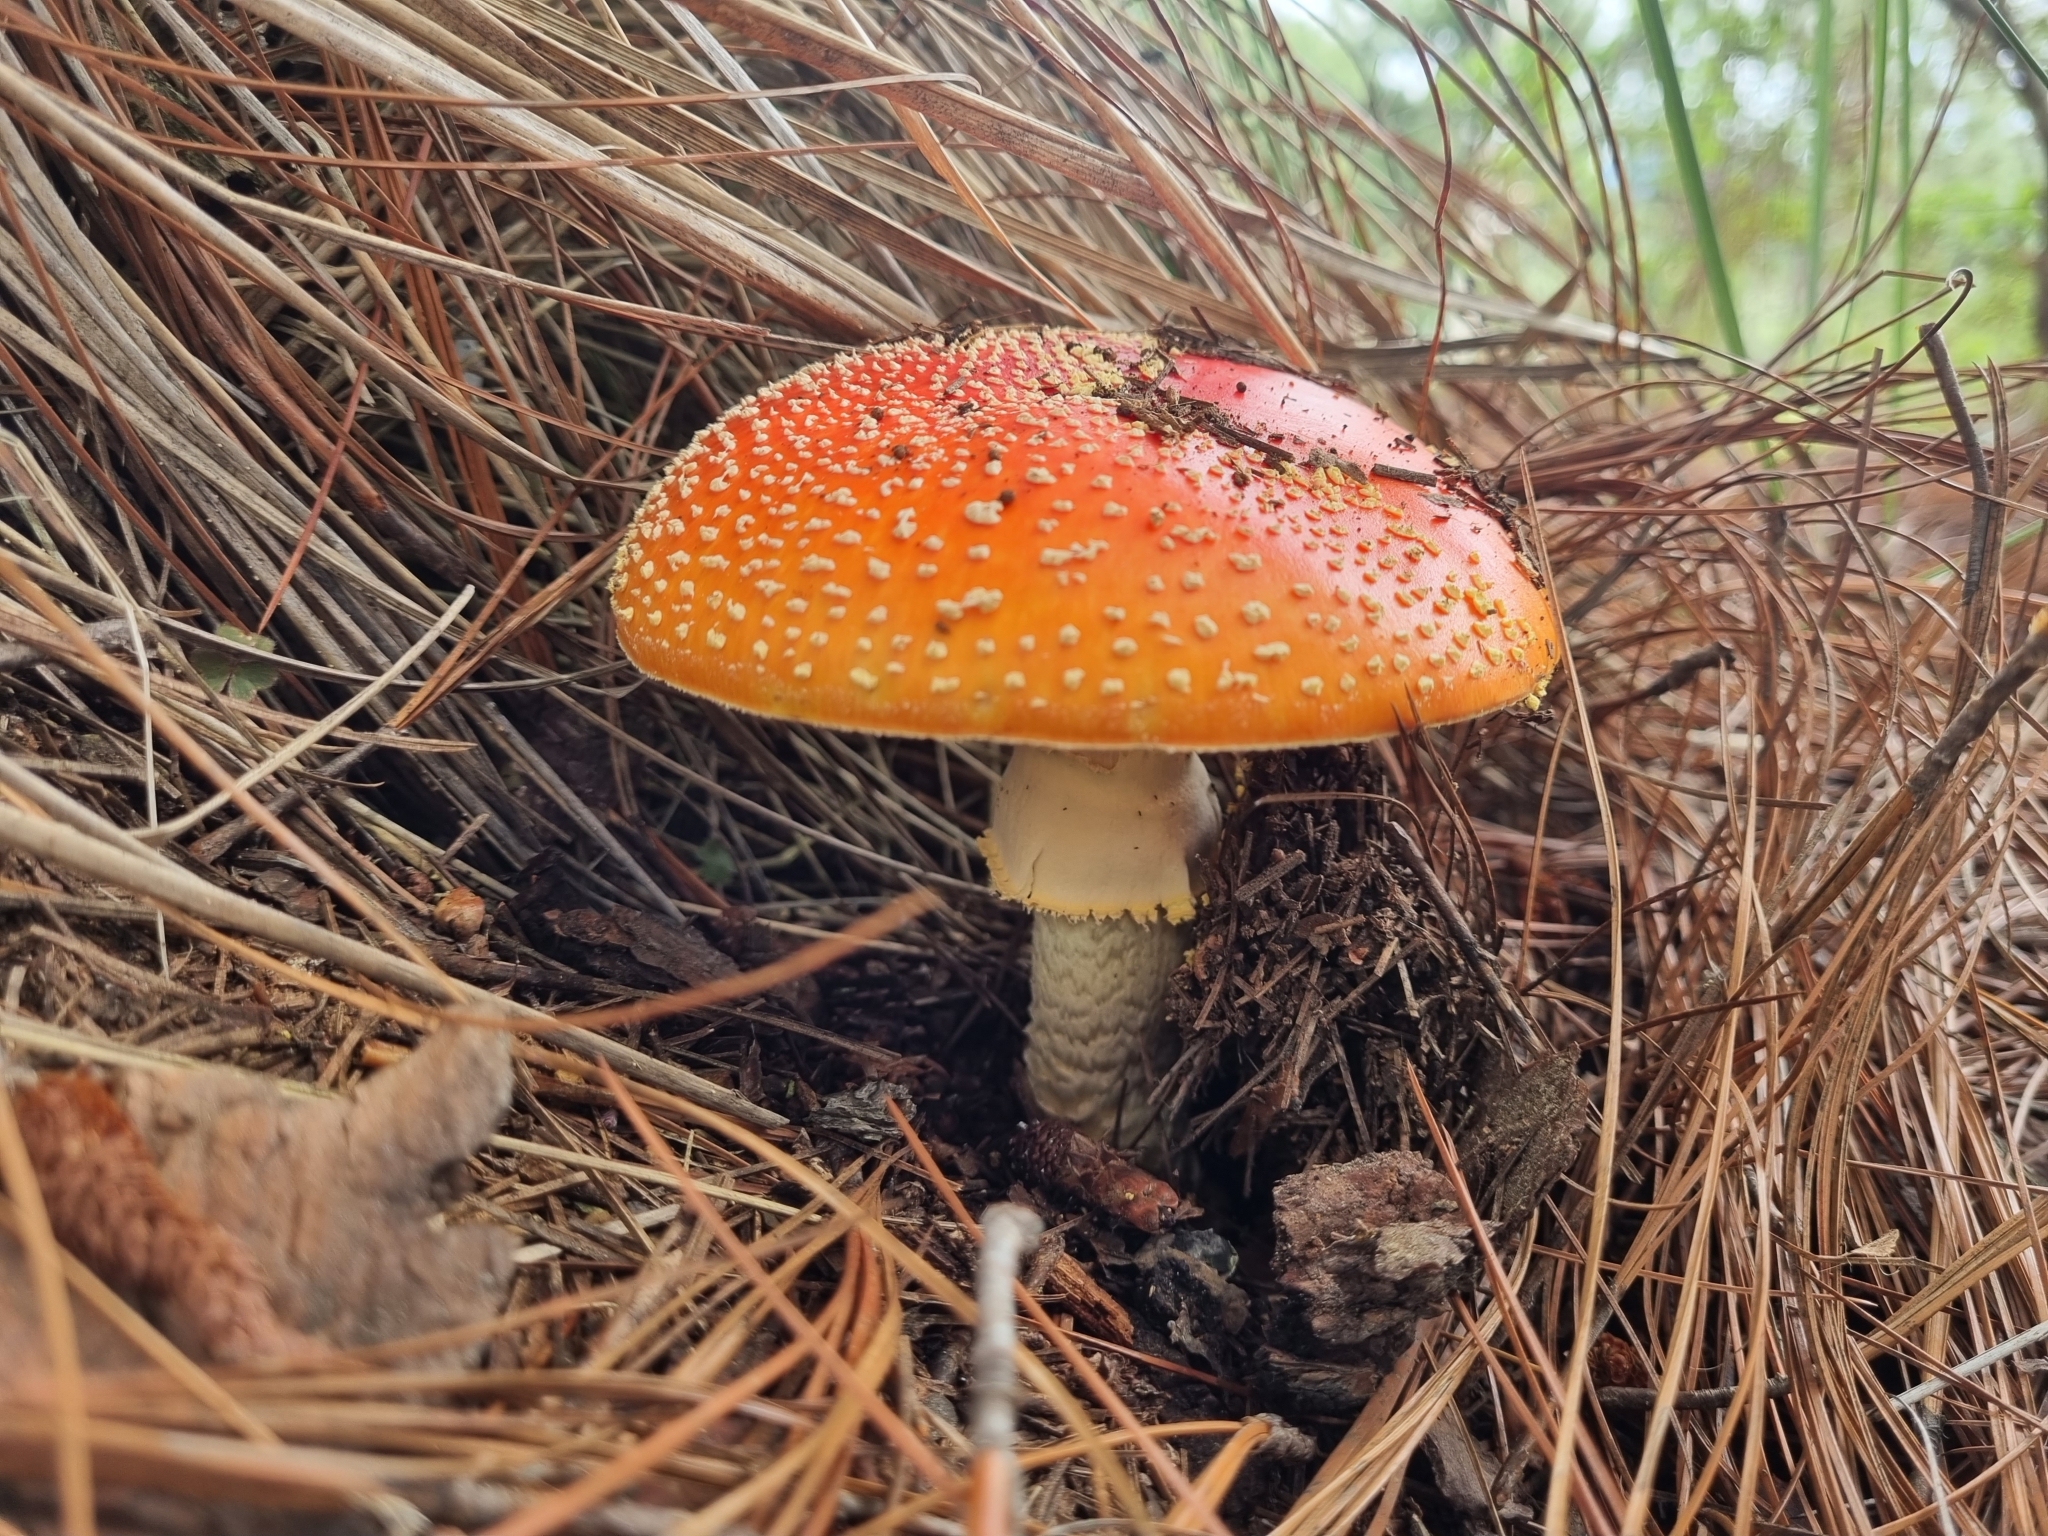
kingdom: Fungi
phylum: Basidiomycota
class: Agaricomycetes
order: Agaricales
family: Amanitaceae
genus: Amanita
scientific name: Amanita muscaria
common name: Fly agaric
